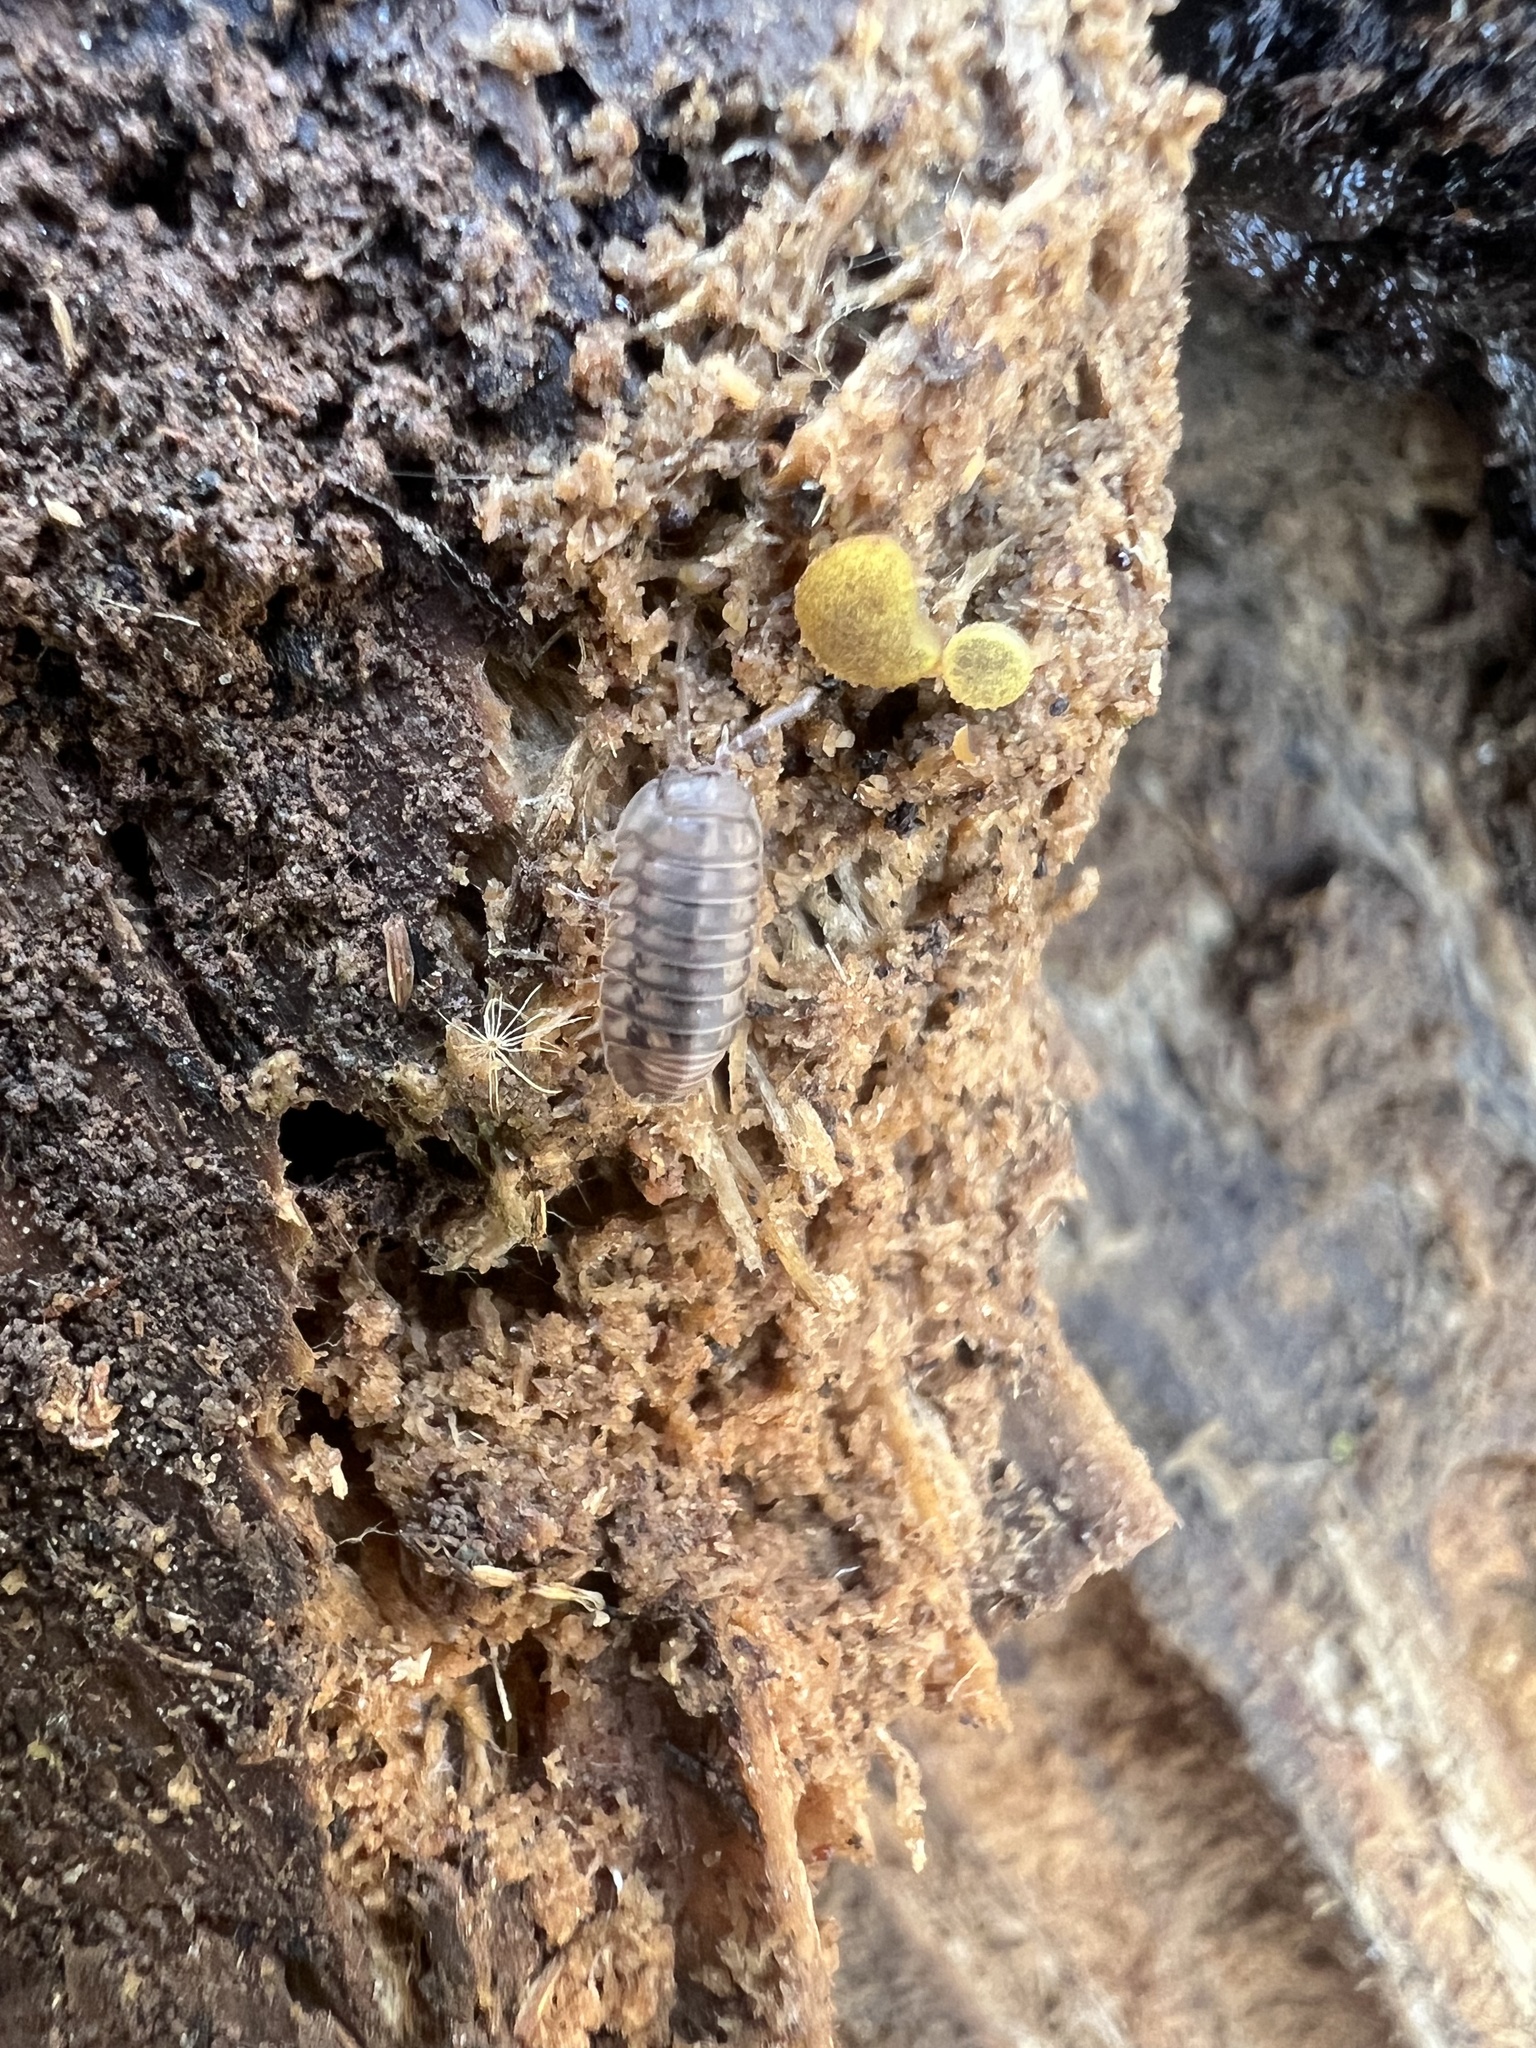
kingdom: Animalia
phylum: Arthropoda
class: Malacostraca
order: Isopoda
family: Armadillidiidae
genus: Armadillidium
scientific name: Armadillidium nasatum
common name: Isopod
